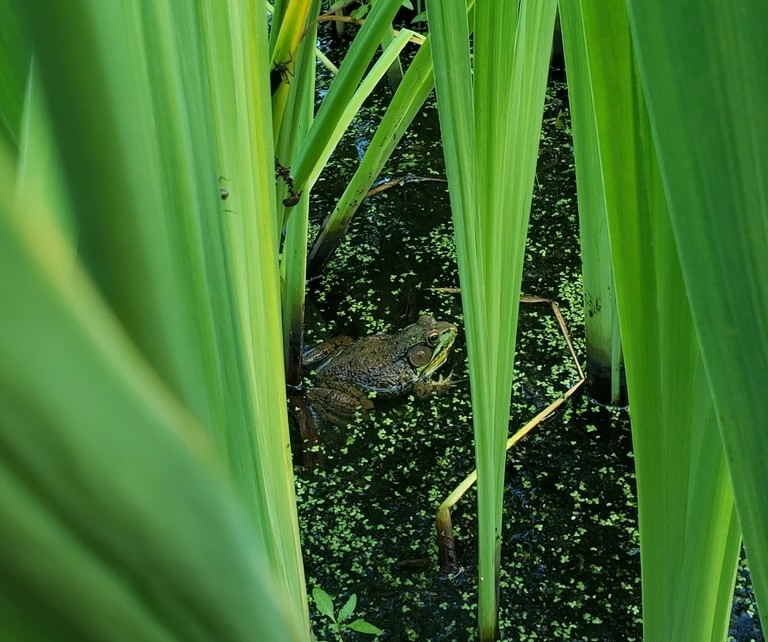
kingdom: Animalia
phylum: Chordata
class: Amphibia
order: Anura
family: Ranidae
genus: Lithobates
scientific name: Lithobates clamitans
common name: Green frog
